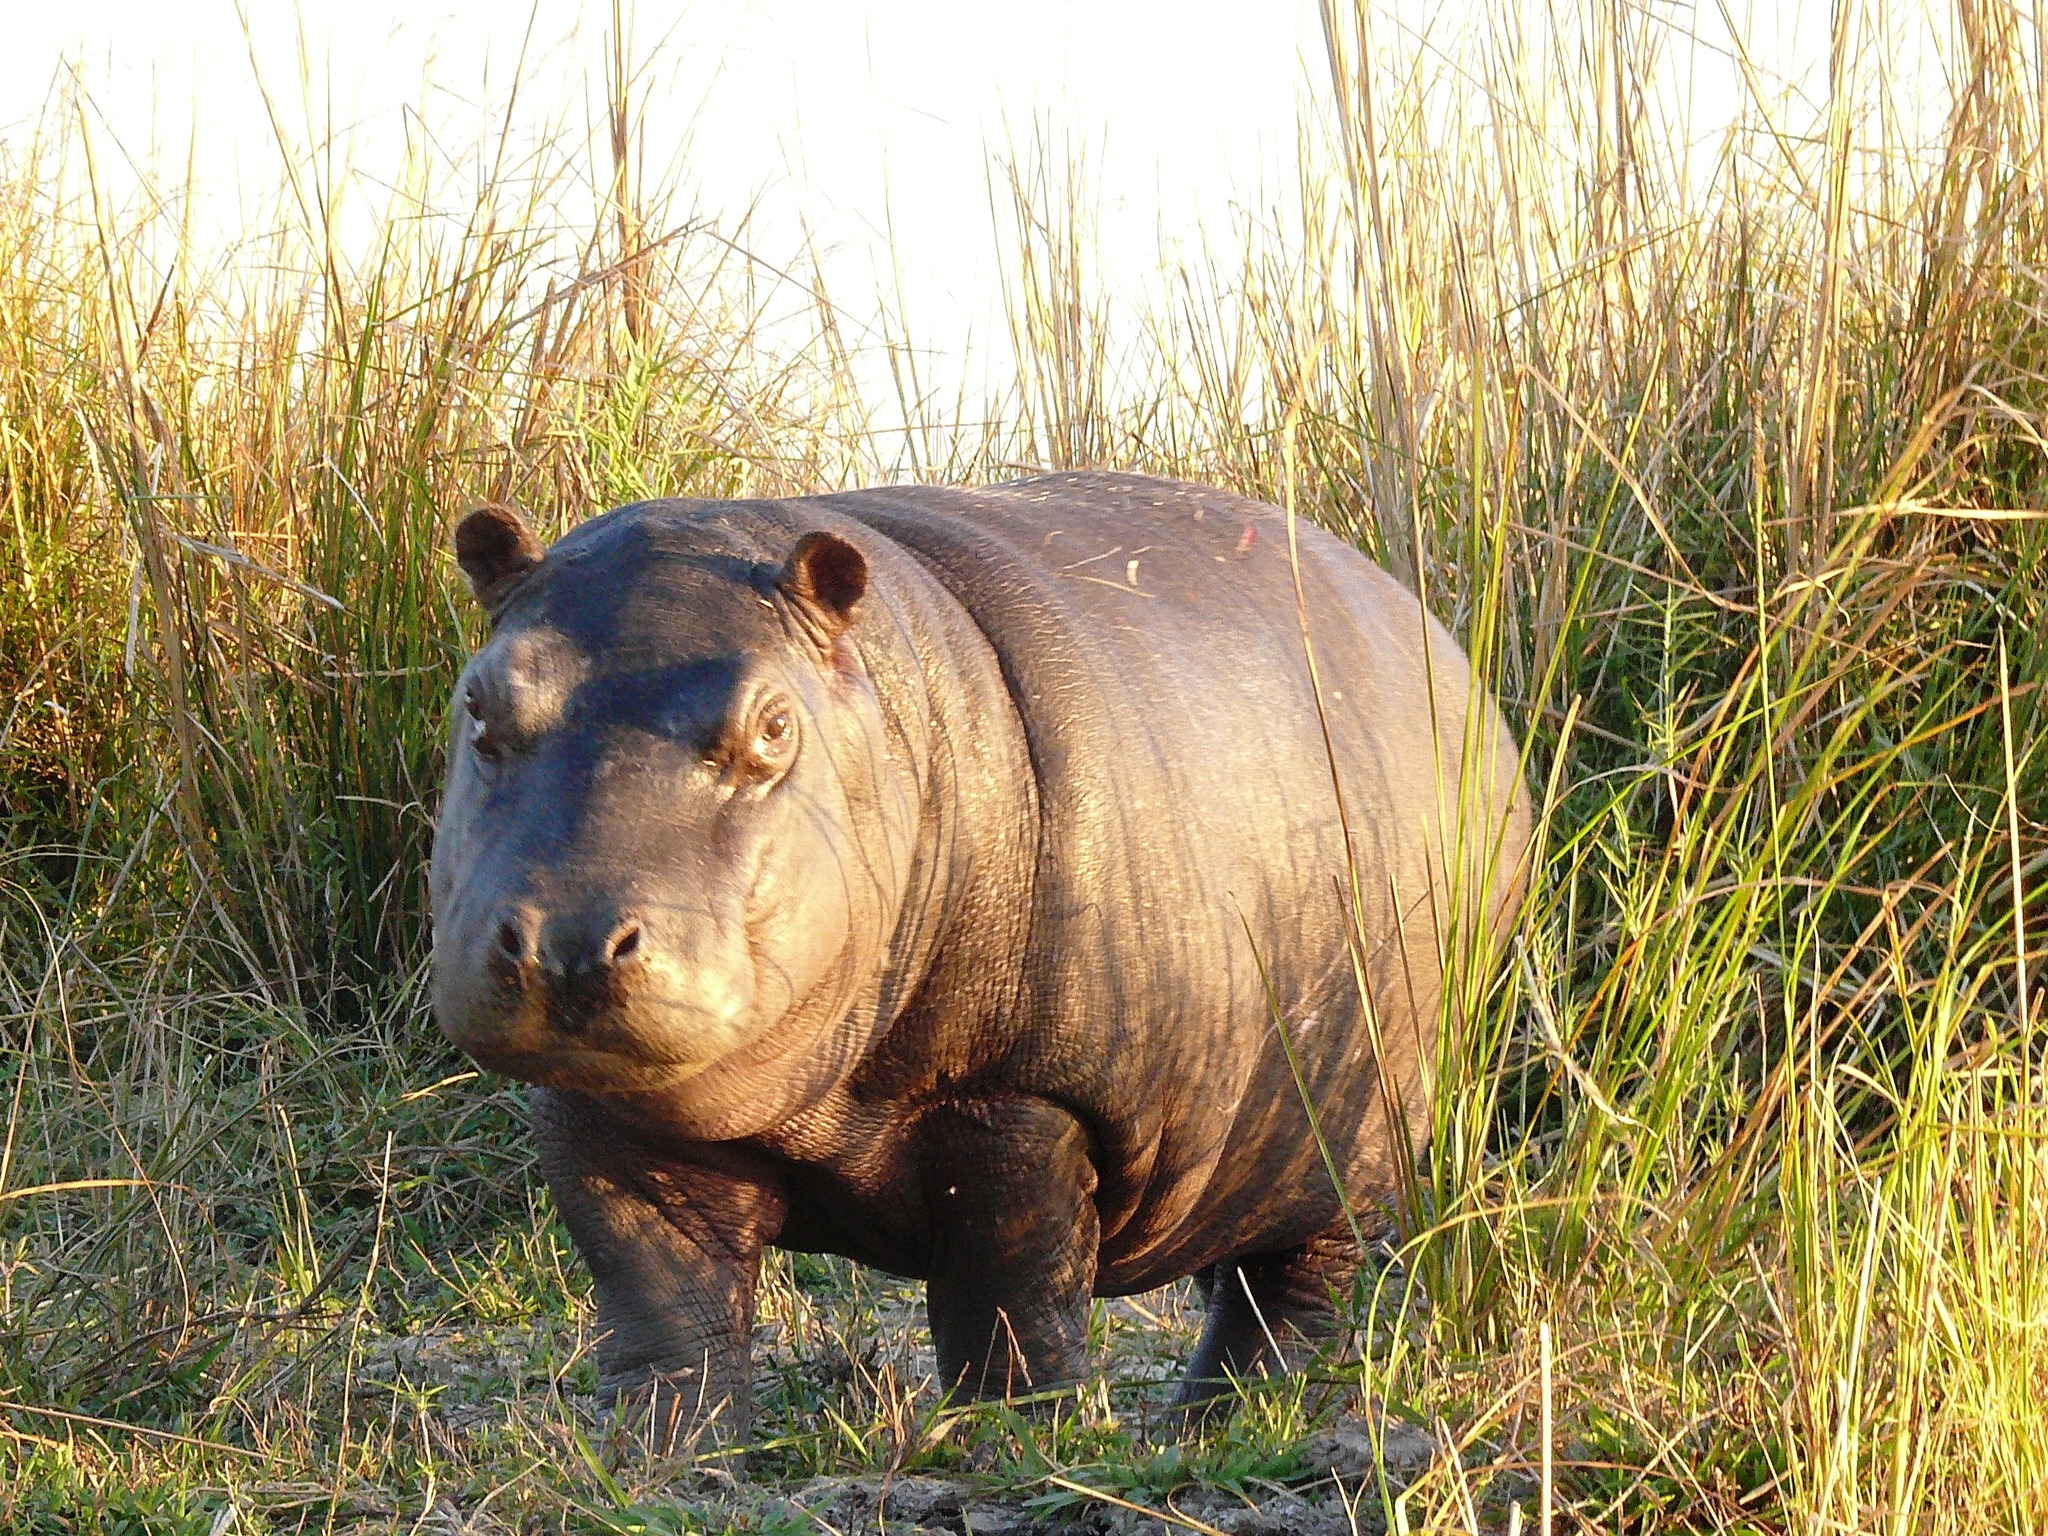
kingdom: Animalia
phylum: Chordata
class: Mammalia
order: Artiodactyla
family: Hippopotamidae
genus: Hippopotamus
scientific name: Hippopotamus amphibius
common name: Common hippopotamus
